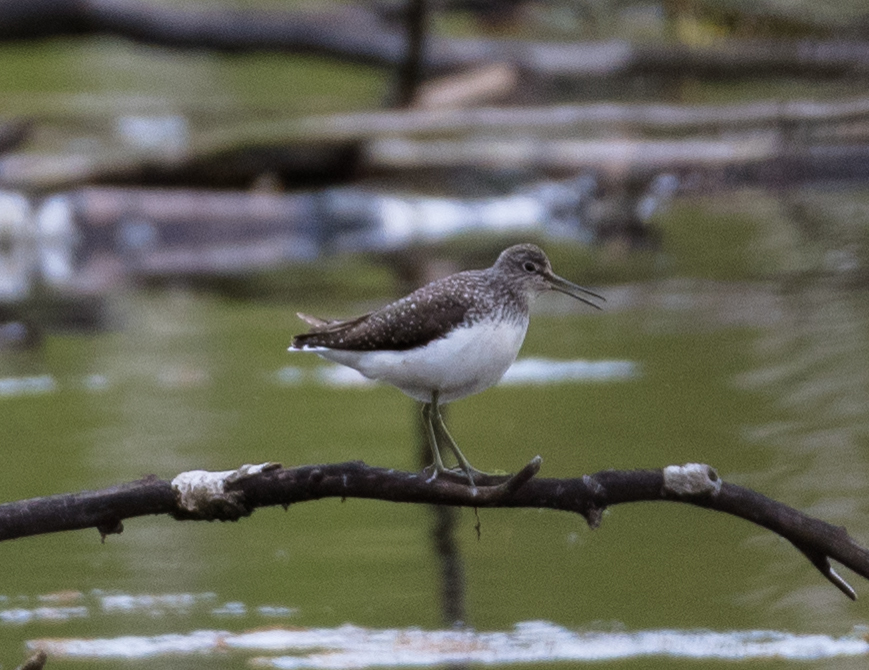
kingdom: Animalia
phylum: Chordata
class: Aves
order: Charadriiformes
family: Scolopacidae
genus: Tringa
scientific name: Tringa ochropus
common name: Green sandpiper
